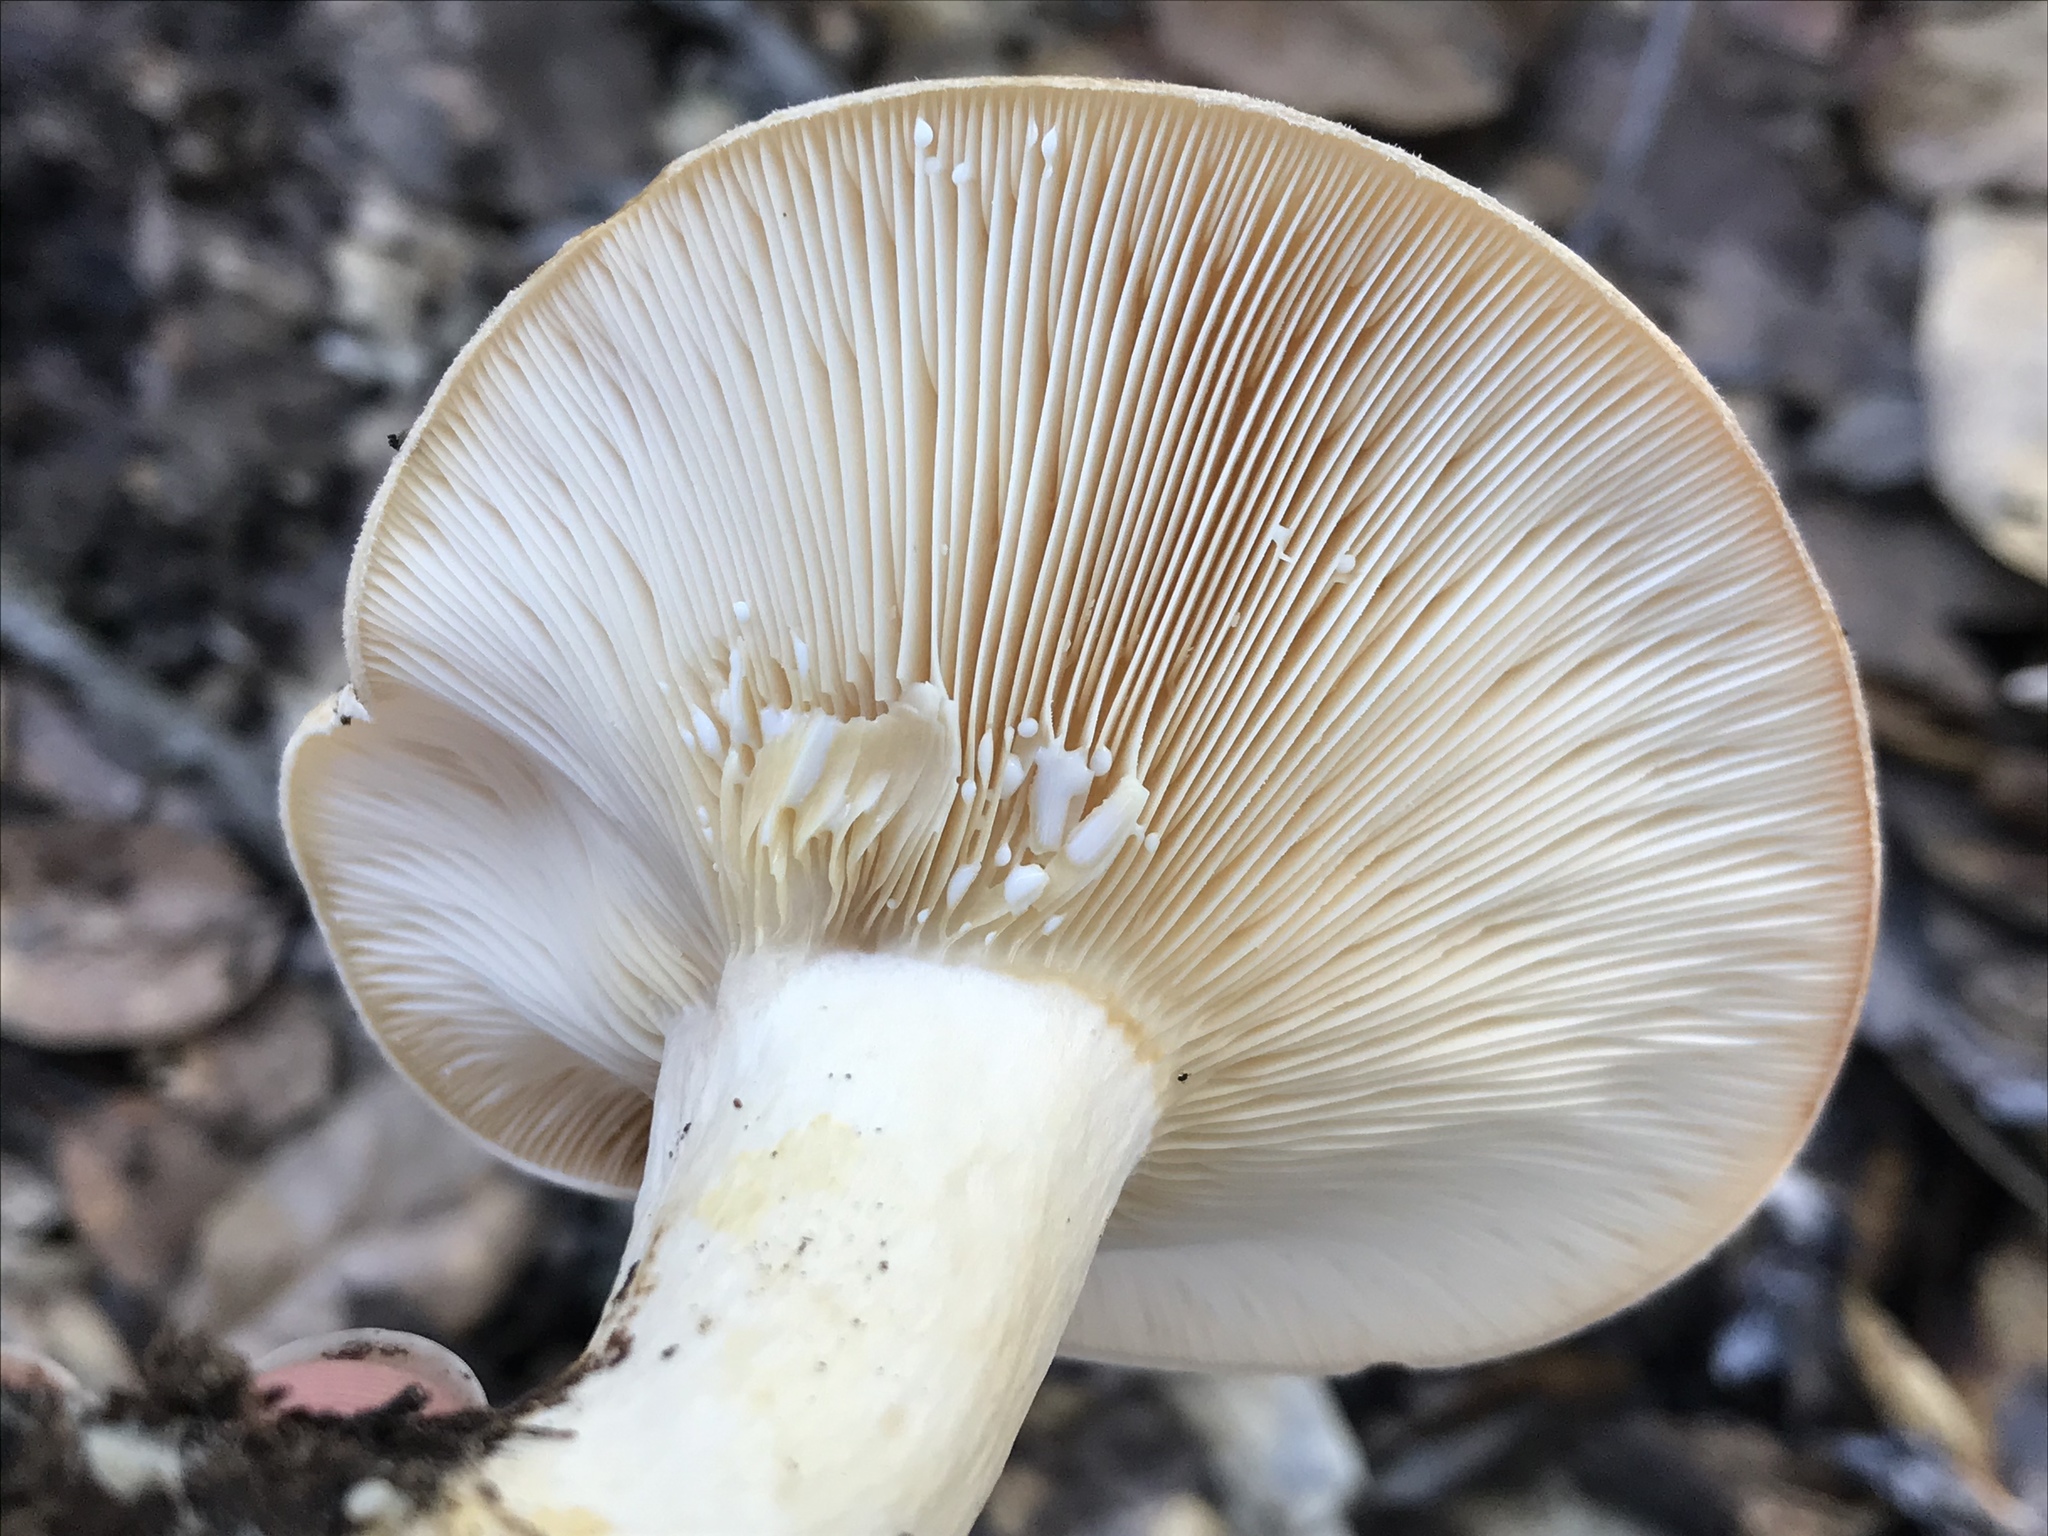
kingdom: Fungi
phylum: Basidiomycota
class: Agaricomycetes
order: Russulales
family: Russulaceae
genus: Lactarius
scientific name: Lactarius alnicola
